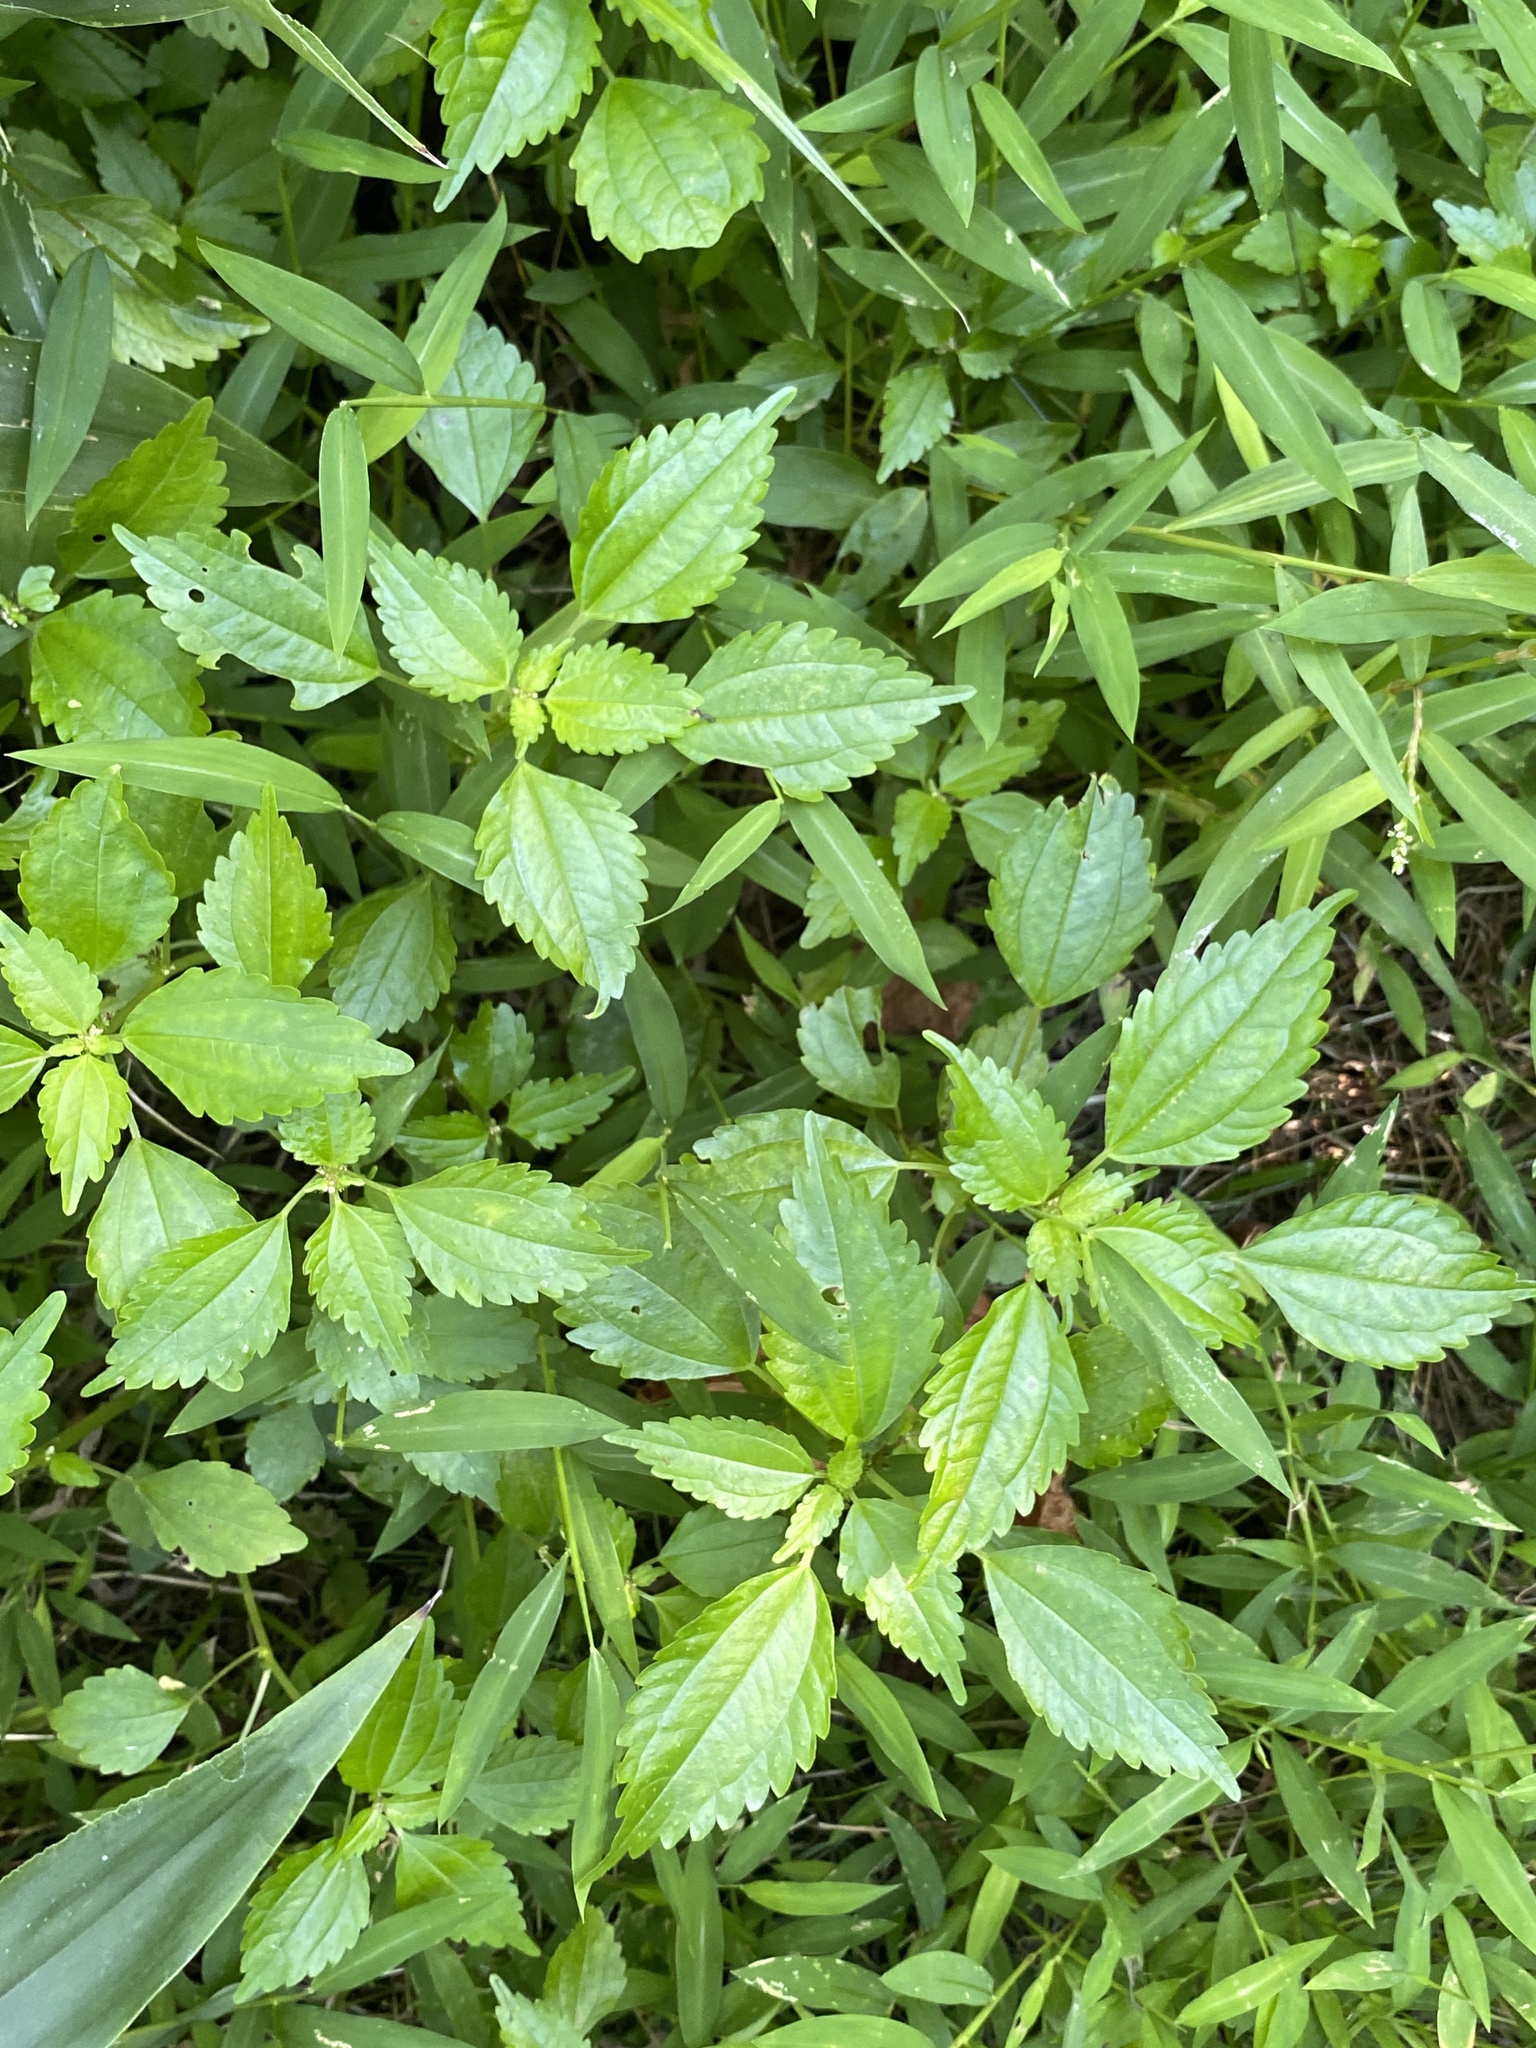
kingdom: Plantae
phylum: Tracheophyta
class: Magnoliopsida
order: Rosales
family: Urticaceae
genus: Pilea
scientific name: Pilea pumila
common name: Clearweed
